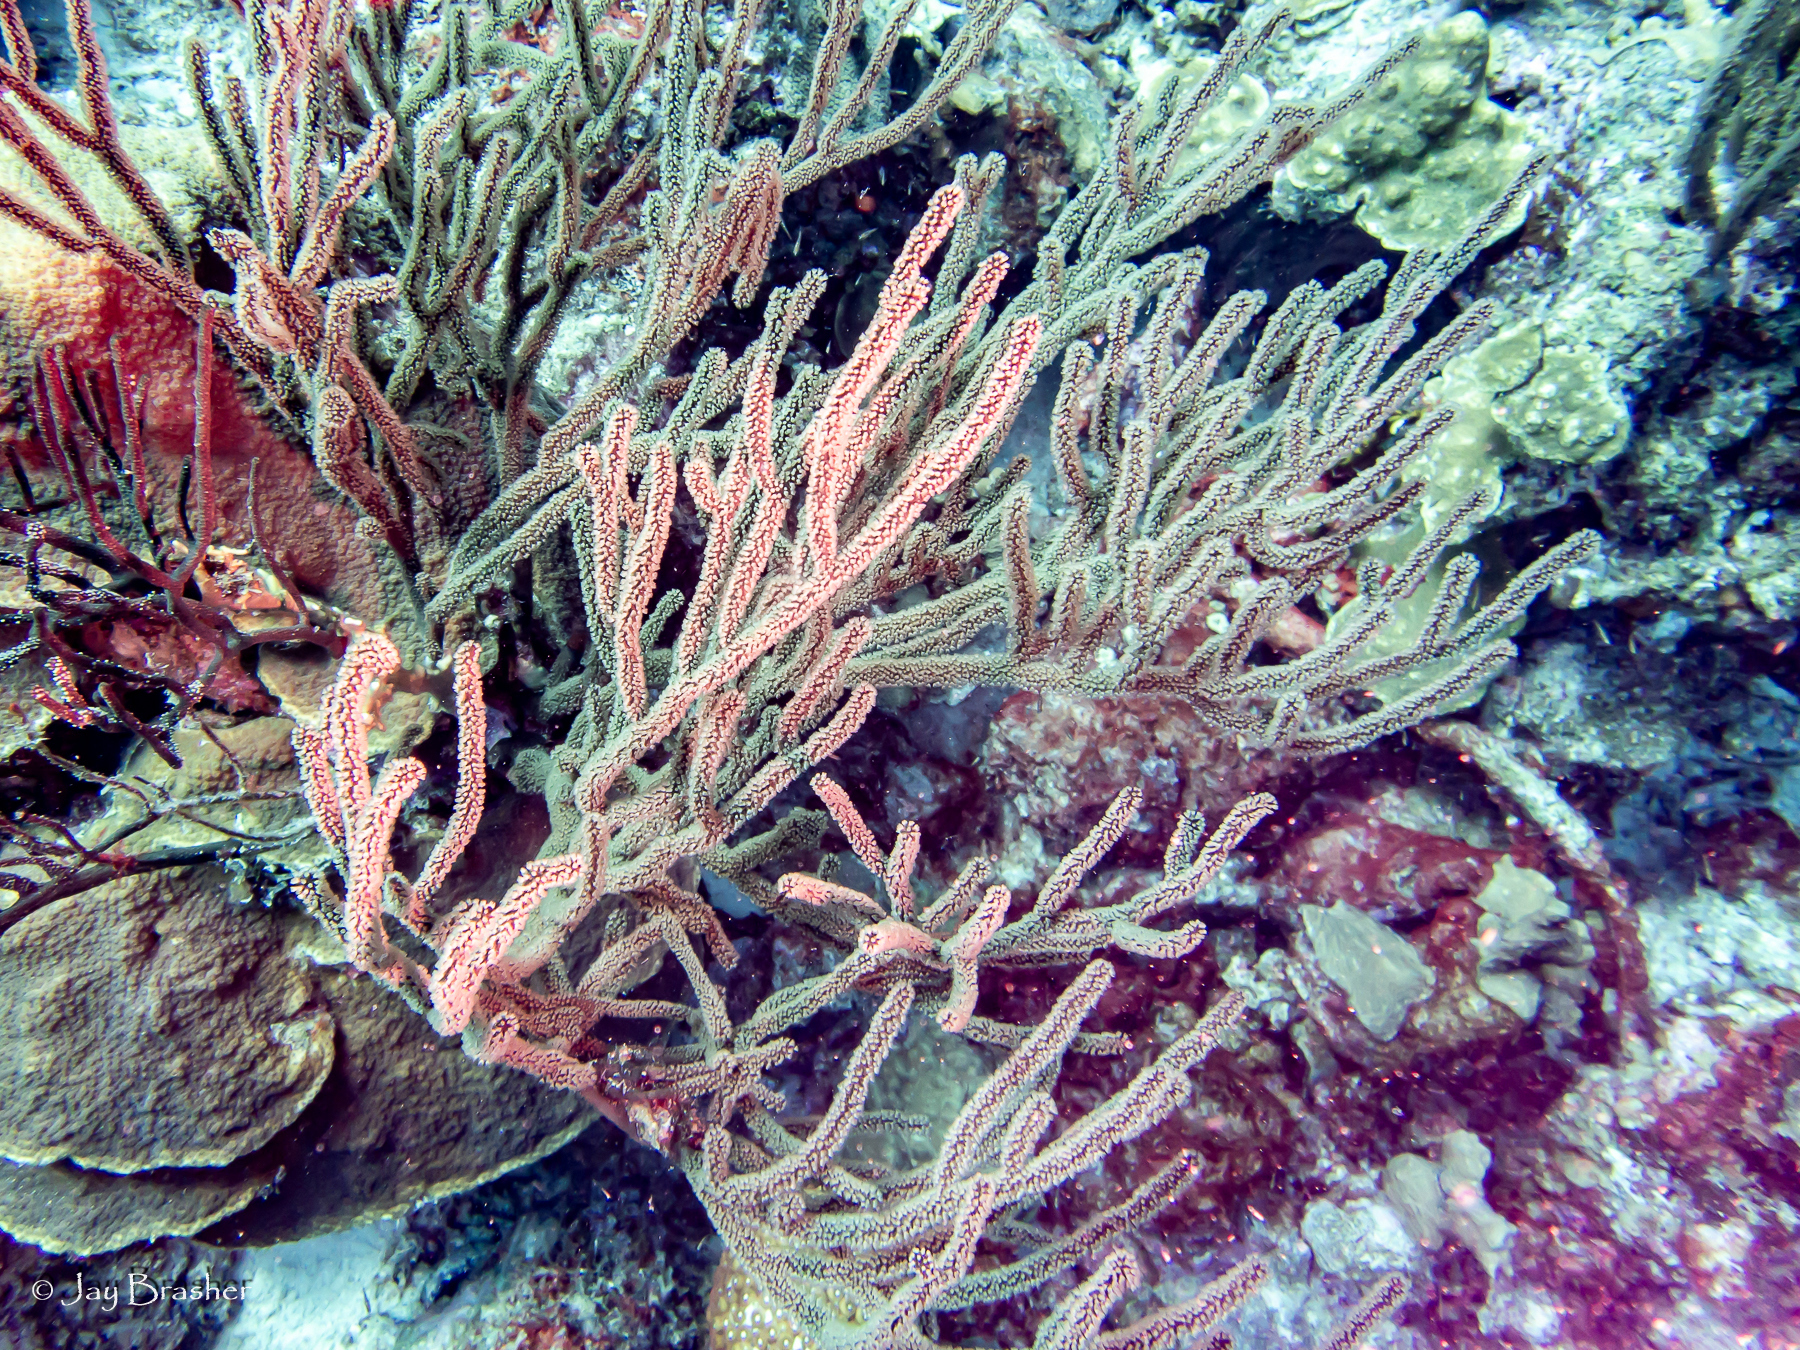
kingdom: Animalia
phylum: Cnidaria
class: Anthozoa
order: Malacalcyonacea
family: Plexauridae
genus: Plexaura
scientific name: Plexaura homomalla
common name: Black sea rod
